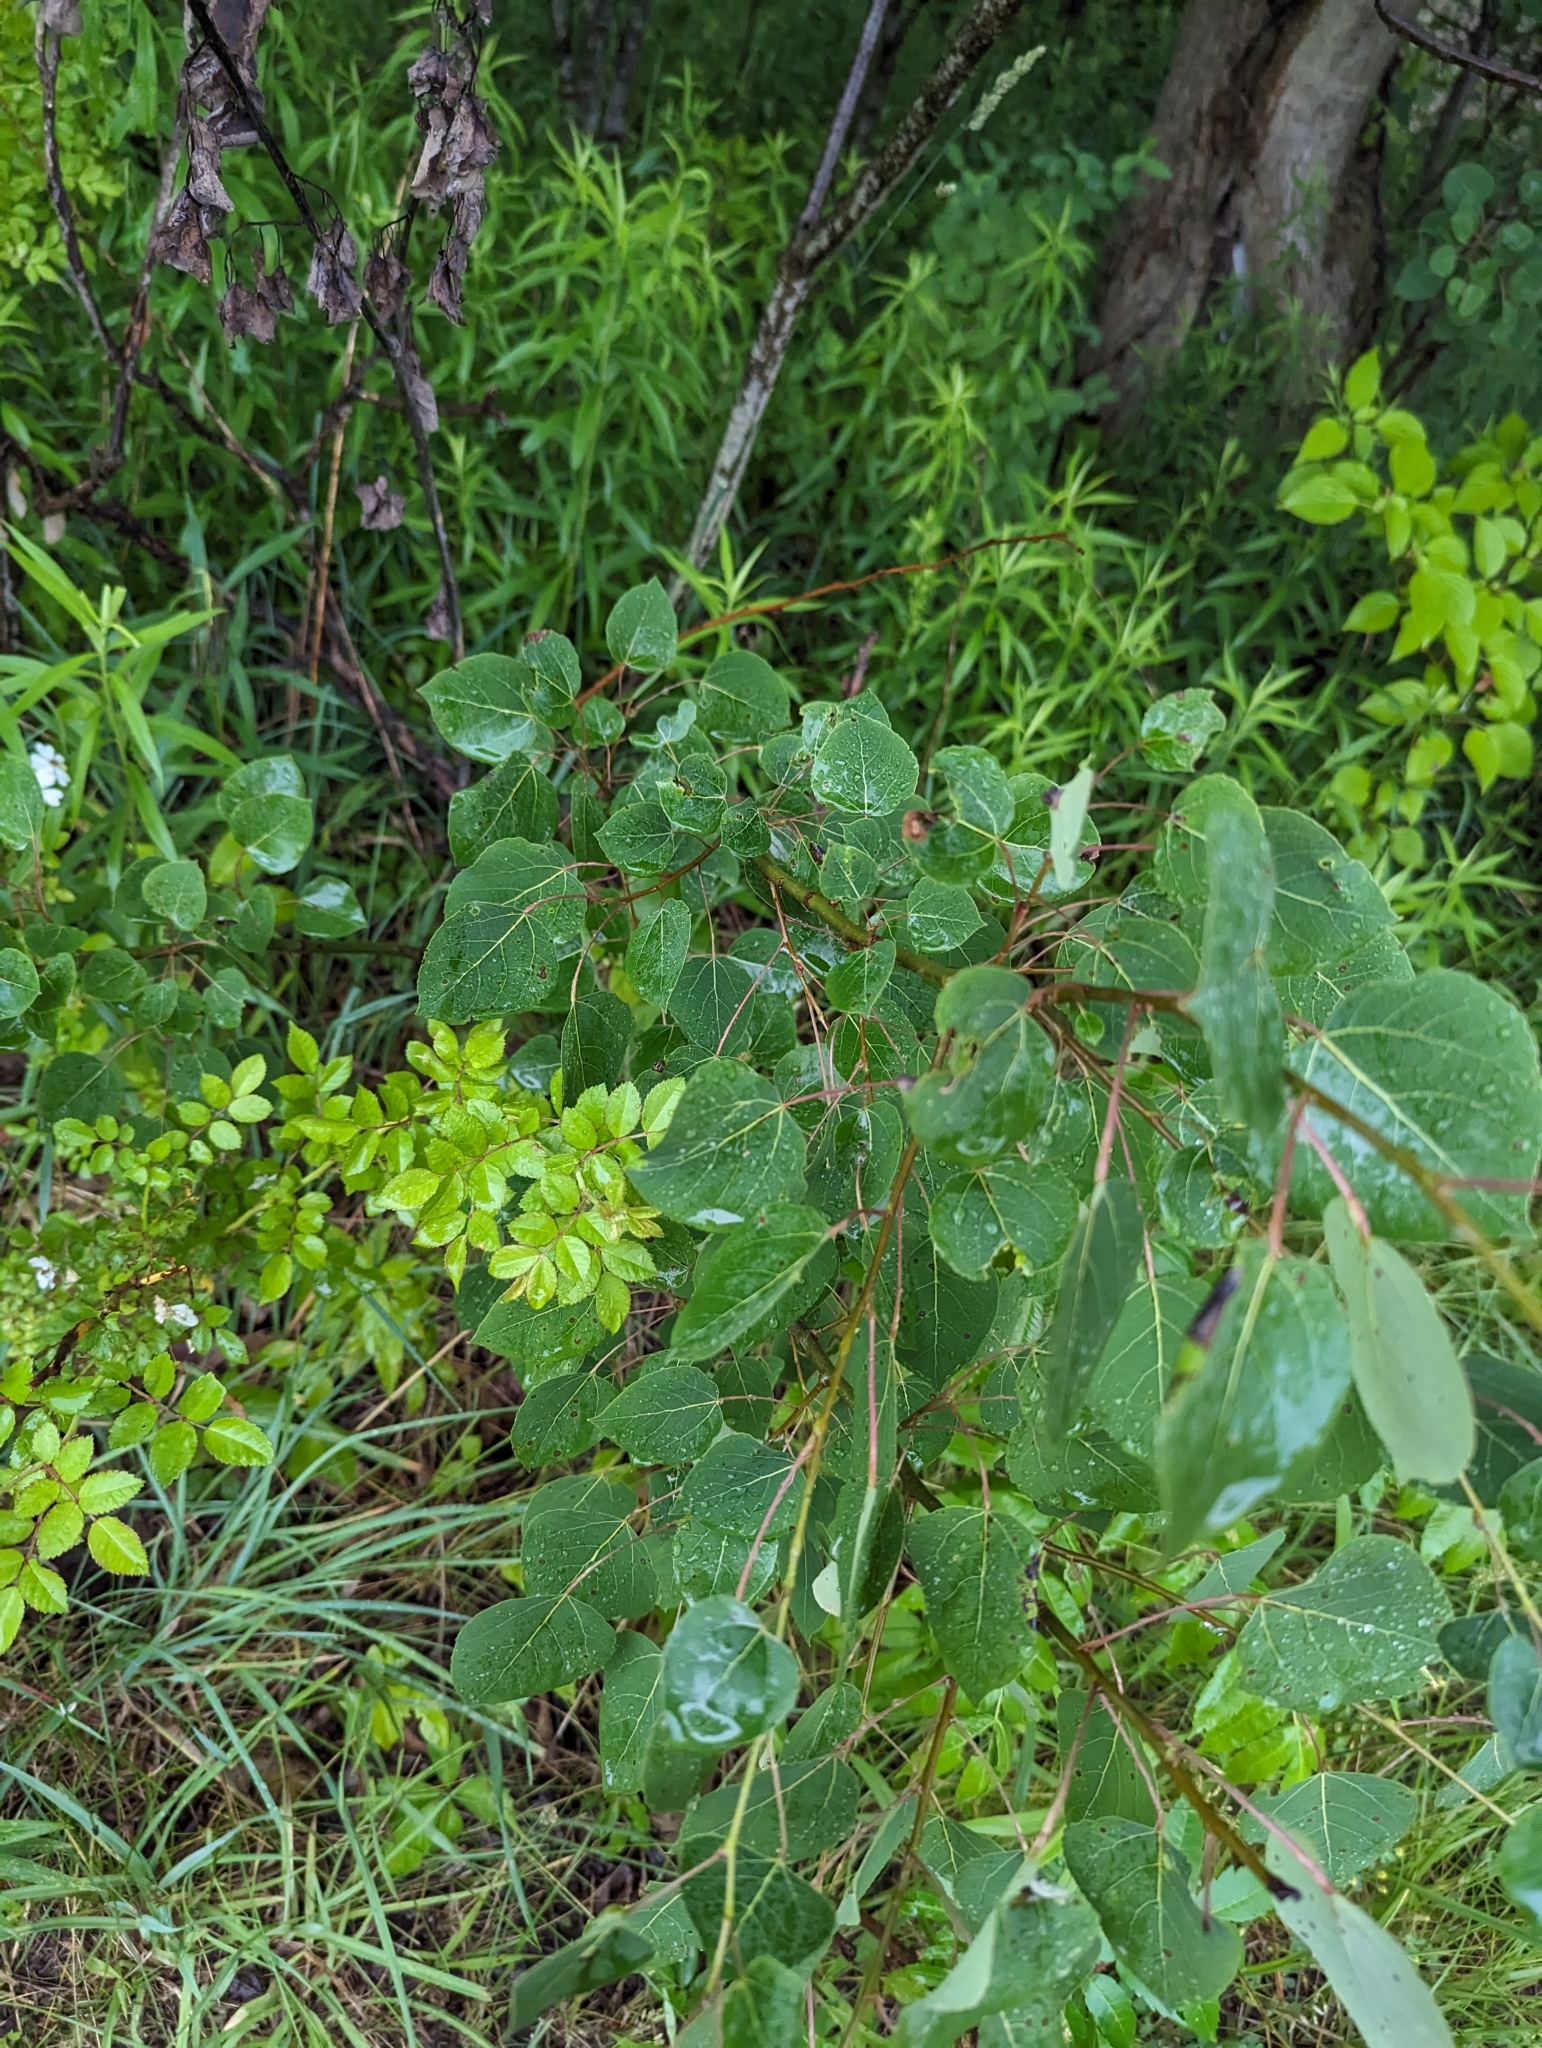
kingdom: Plantae
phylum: Tracheophyta
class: Magnoliopsida
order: Malpighiales
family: Salicaceae
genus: Populus
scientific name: Populus tremuloides
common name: Quaking aspen
